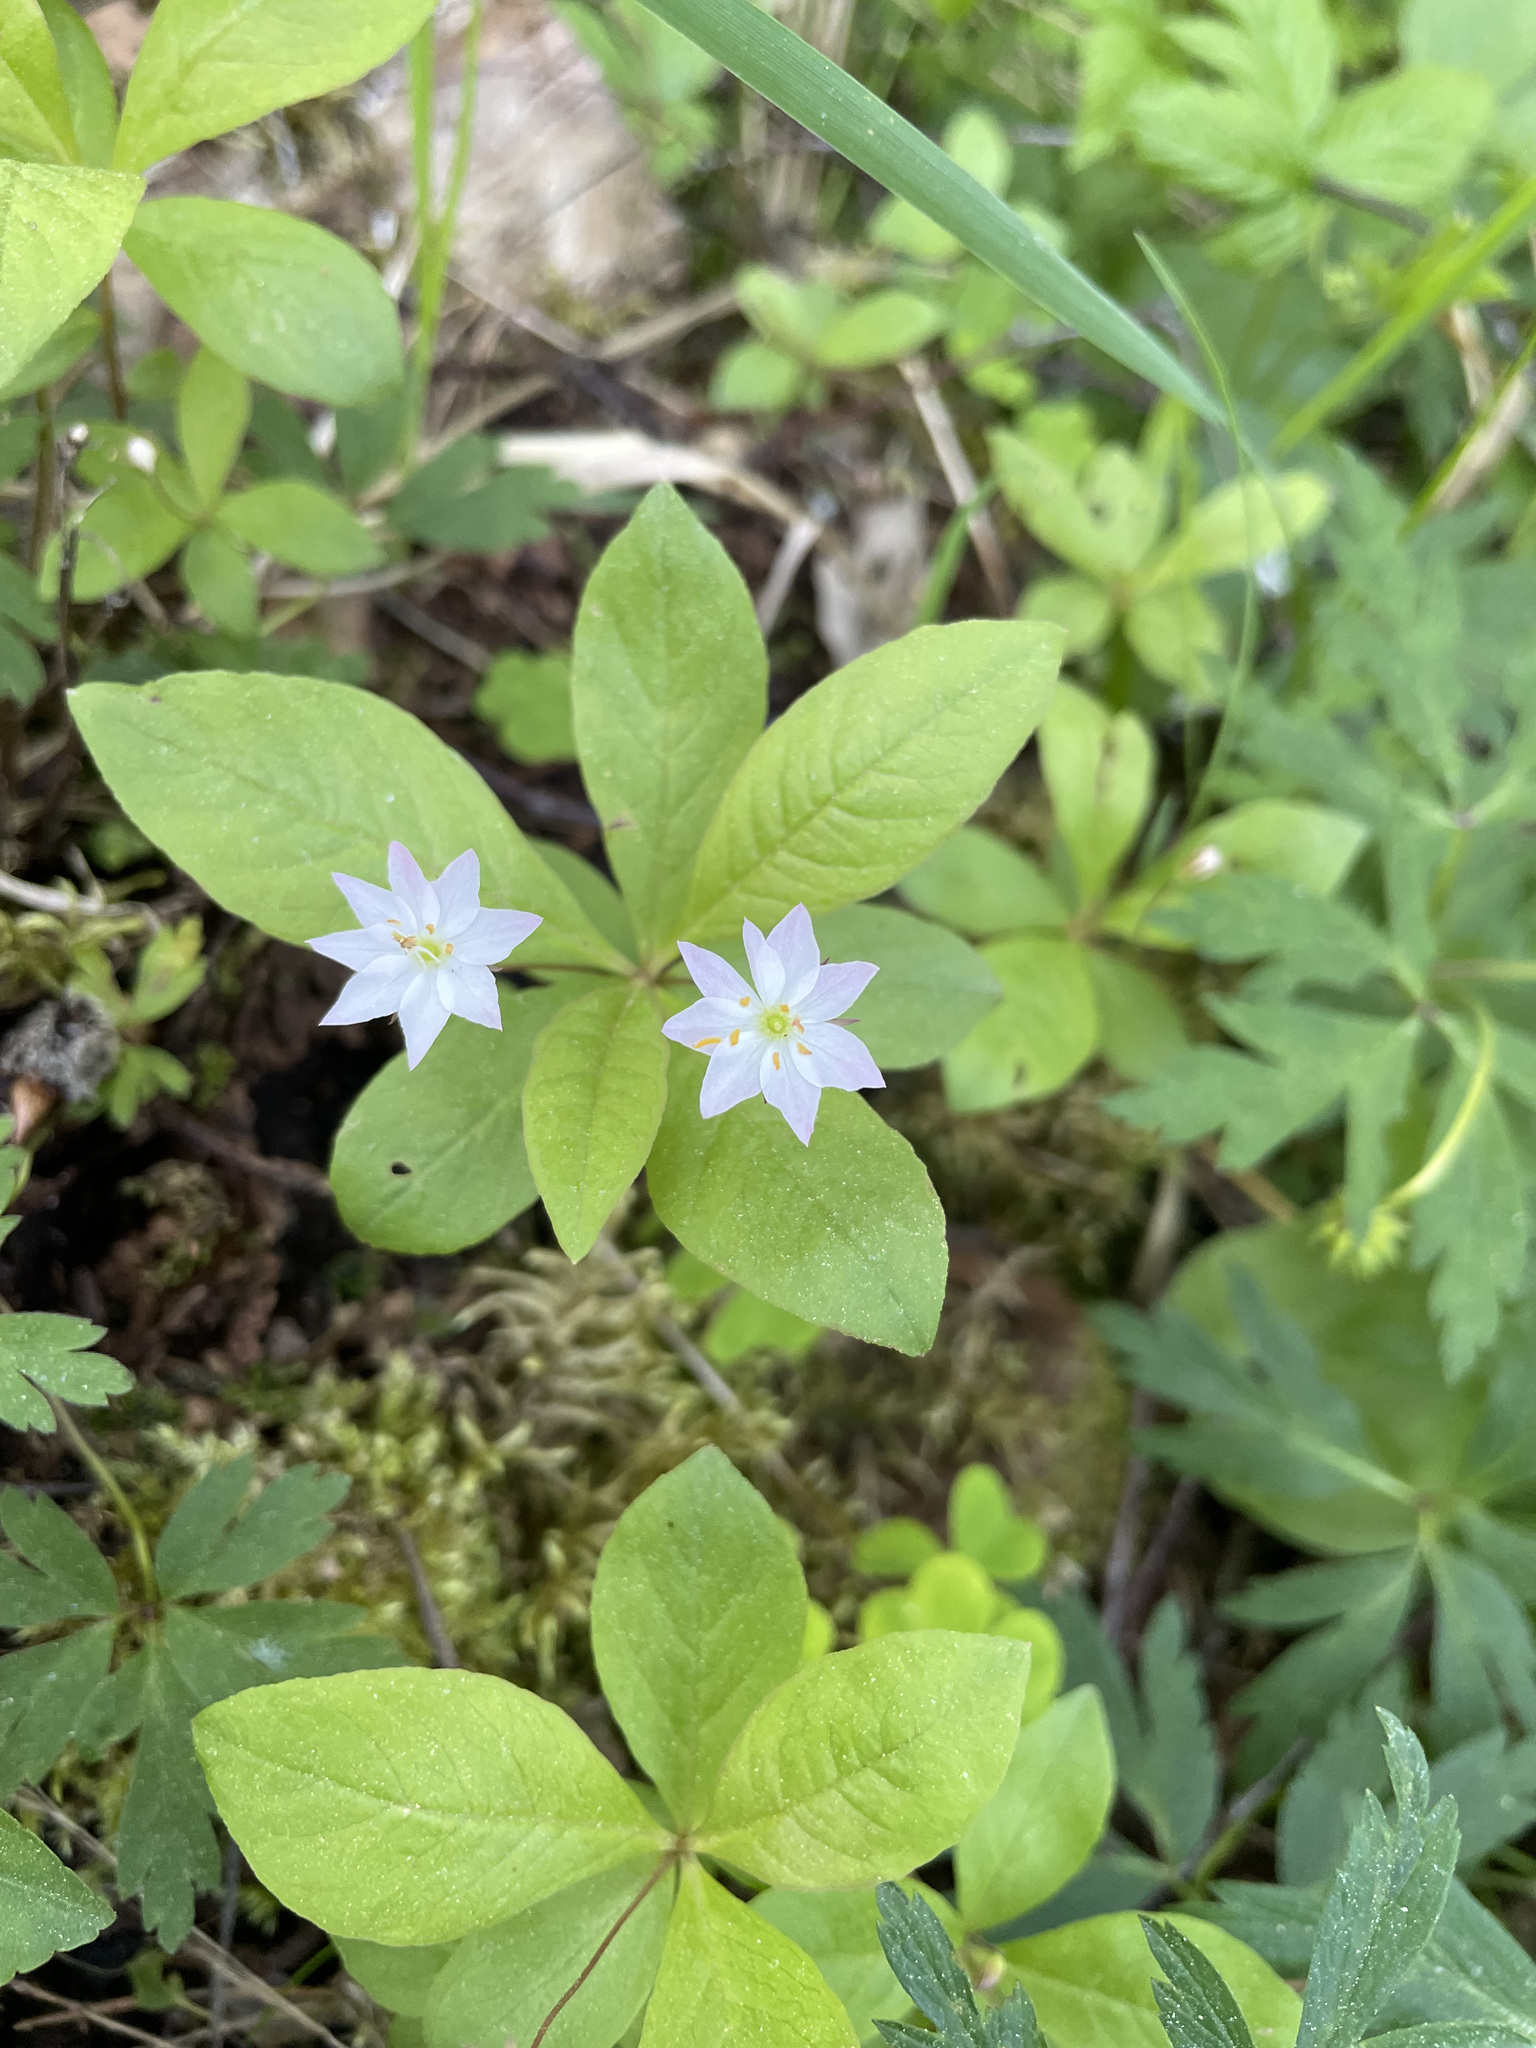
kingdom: Plantae
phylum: Tracheophyta
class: Magnoliopsida
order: Ericales
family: Primulaceae
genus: Lysimachia
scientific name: Lysimachia europaea
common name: Arctic starflower
